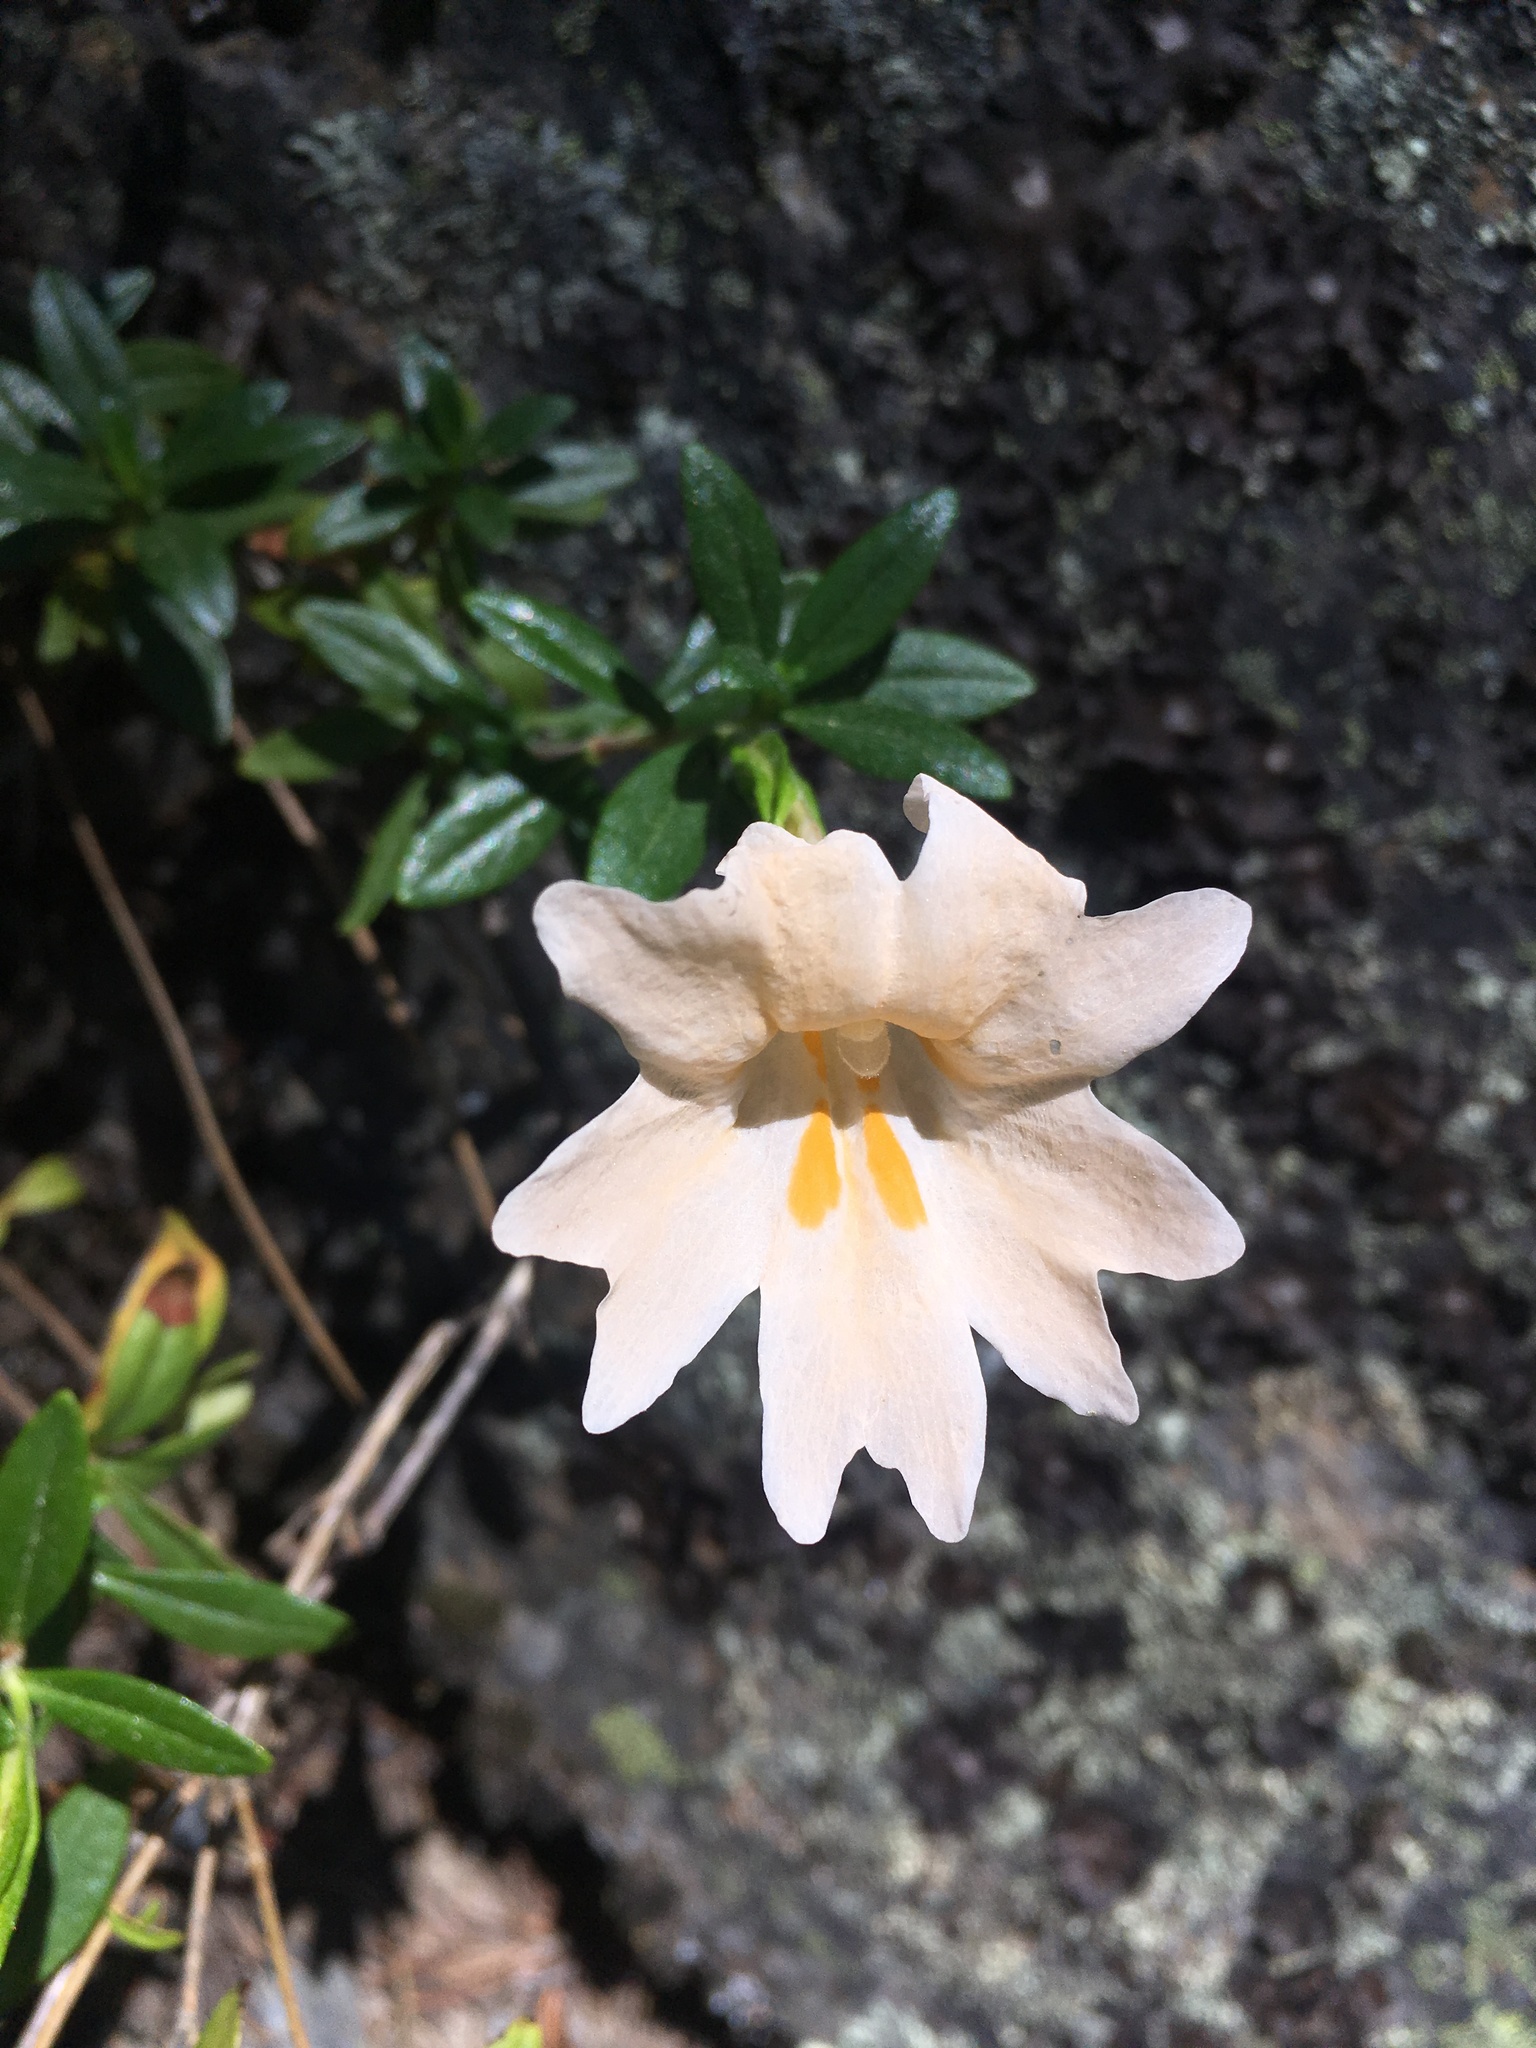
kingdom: Plantae
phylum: Tracheophyta
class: Magnoliopsida
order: Lamiales
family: Phrymaceae
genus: Diplacus
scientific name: Diplacus grandiflorus
